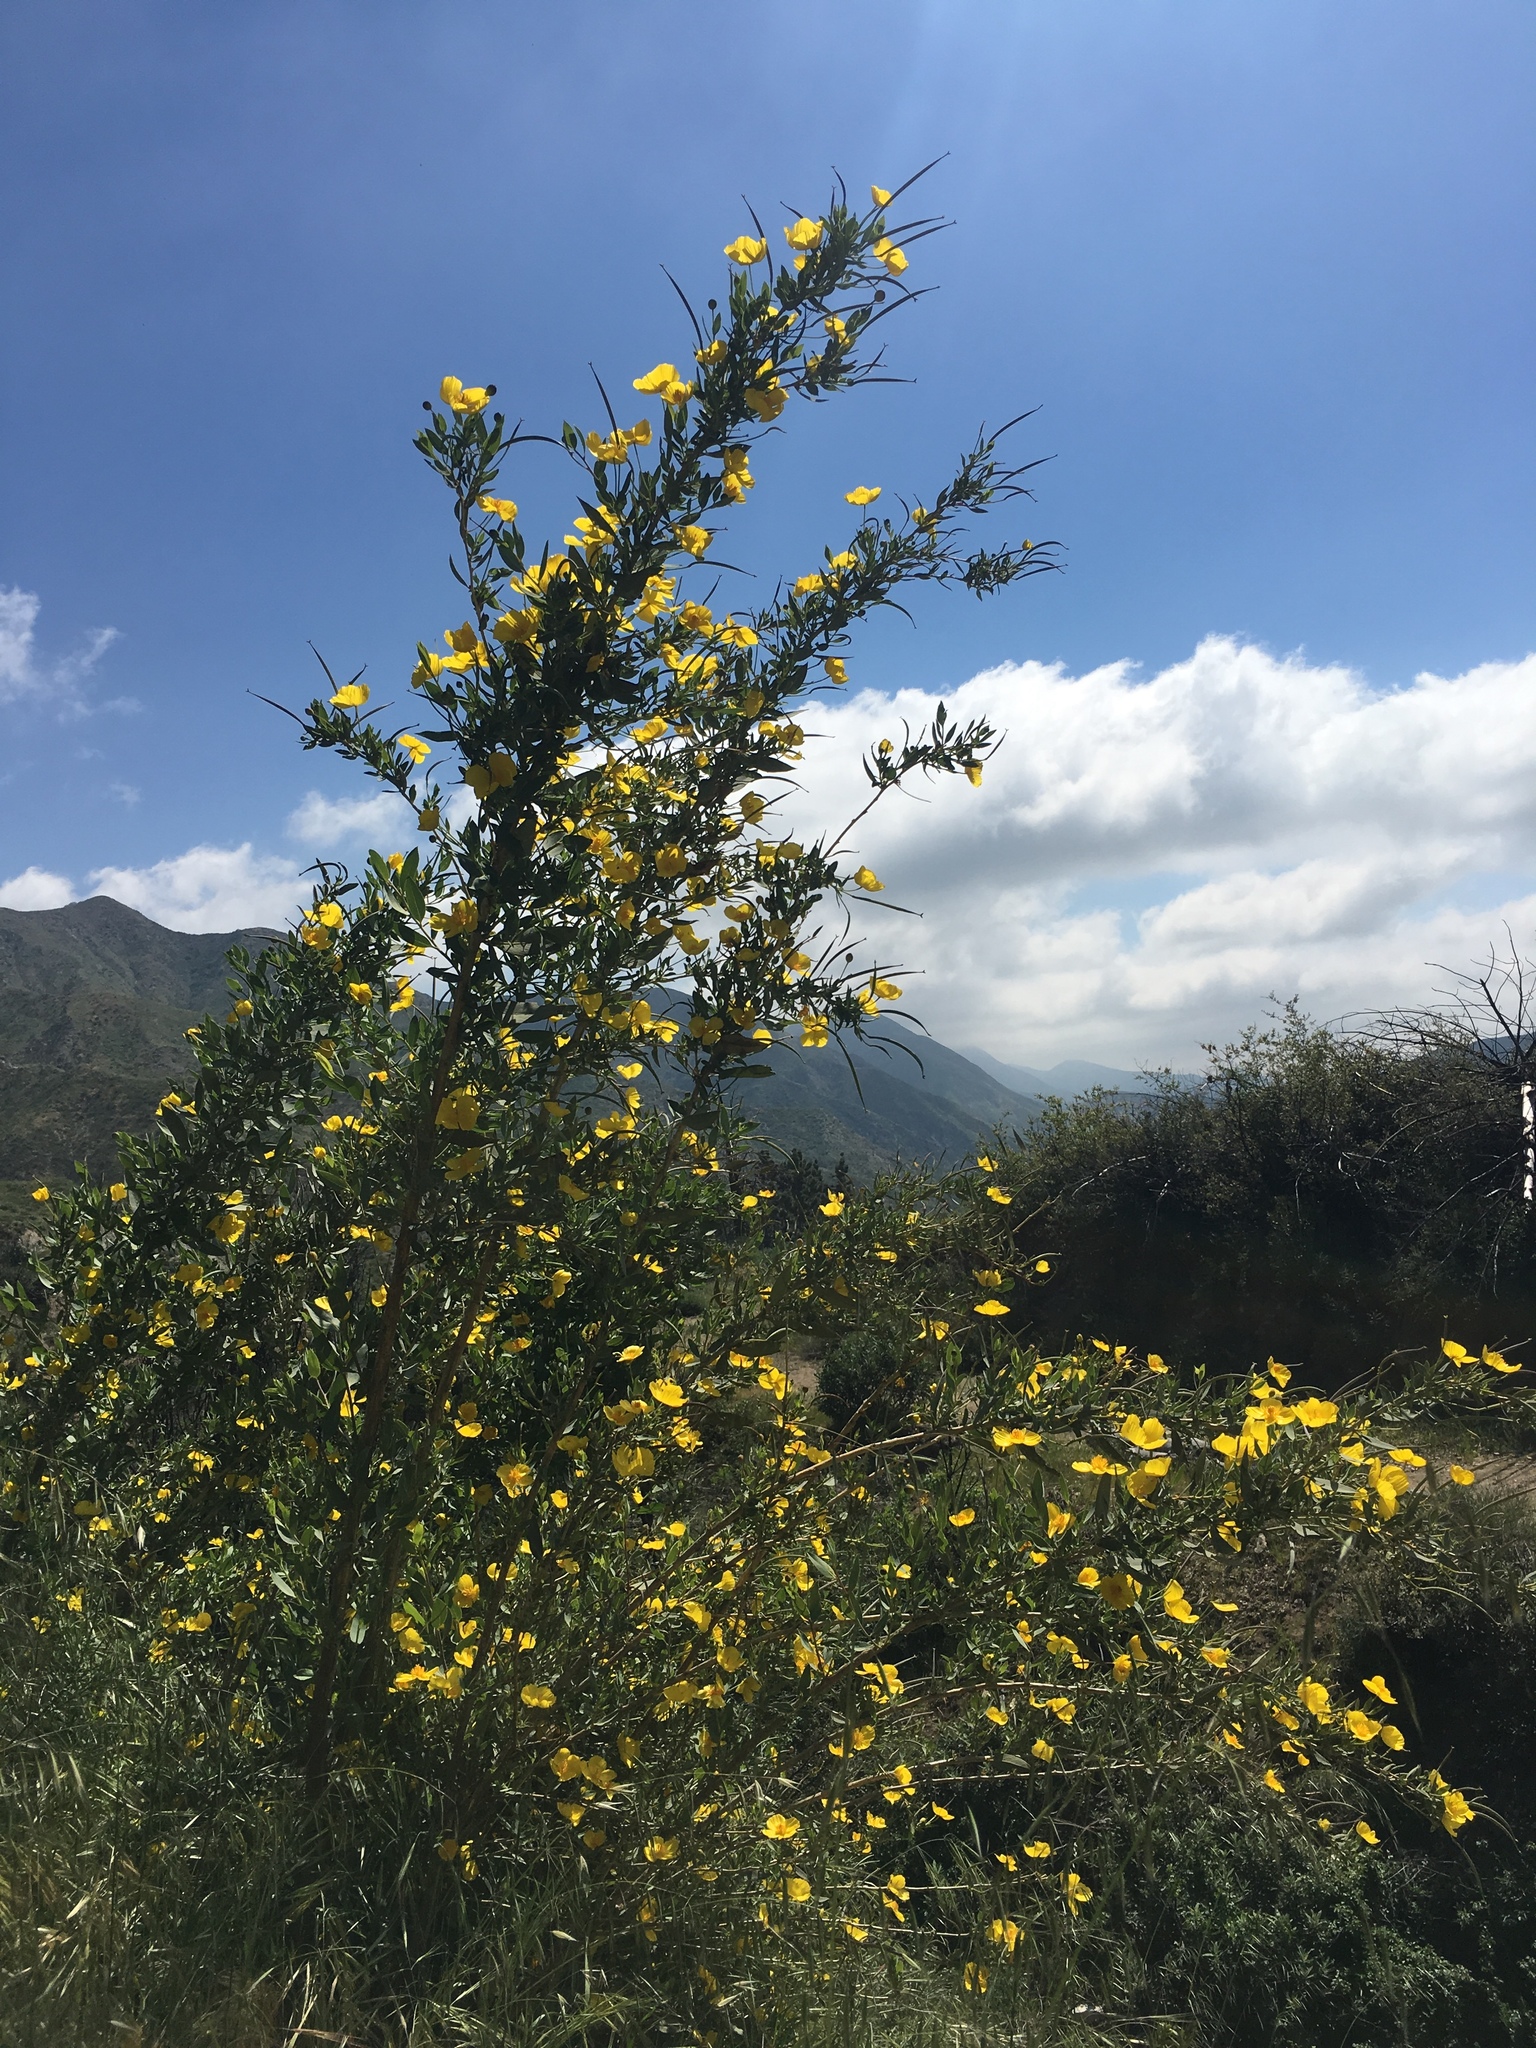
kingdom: Plantae
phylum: Tracheophyta
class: Magnoliopsida
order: Ranunculales
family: Papaveraceae
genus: Dendromecon
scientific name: Dendromecon rigida
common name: Tree poppy
